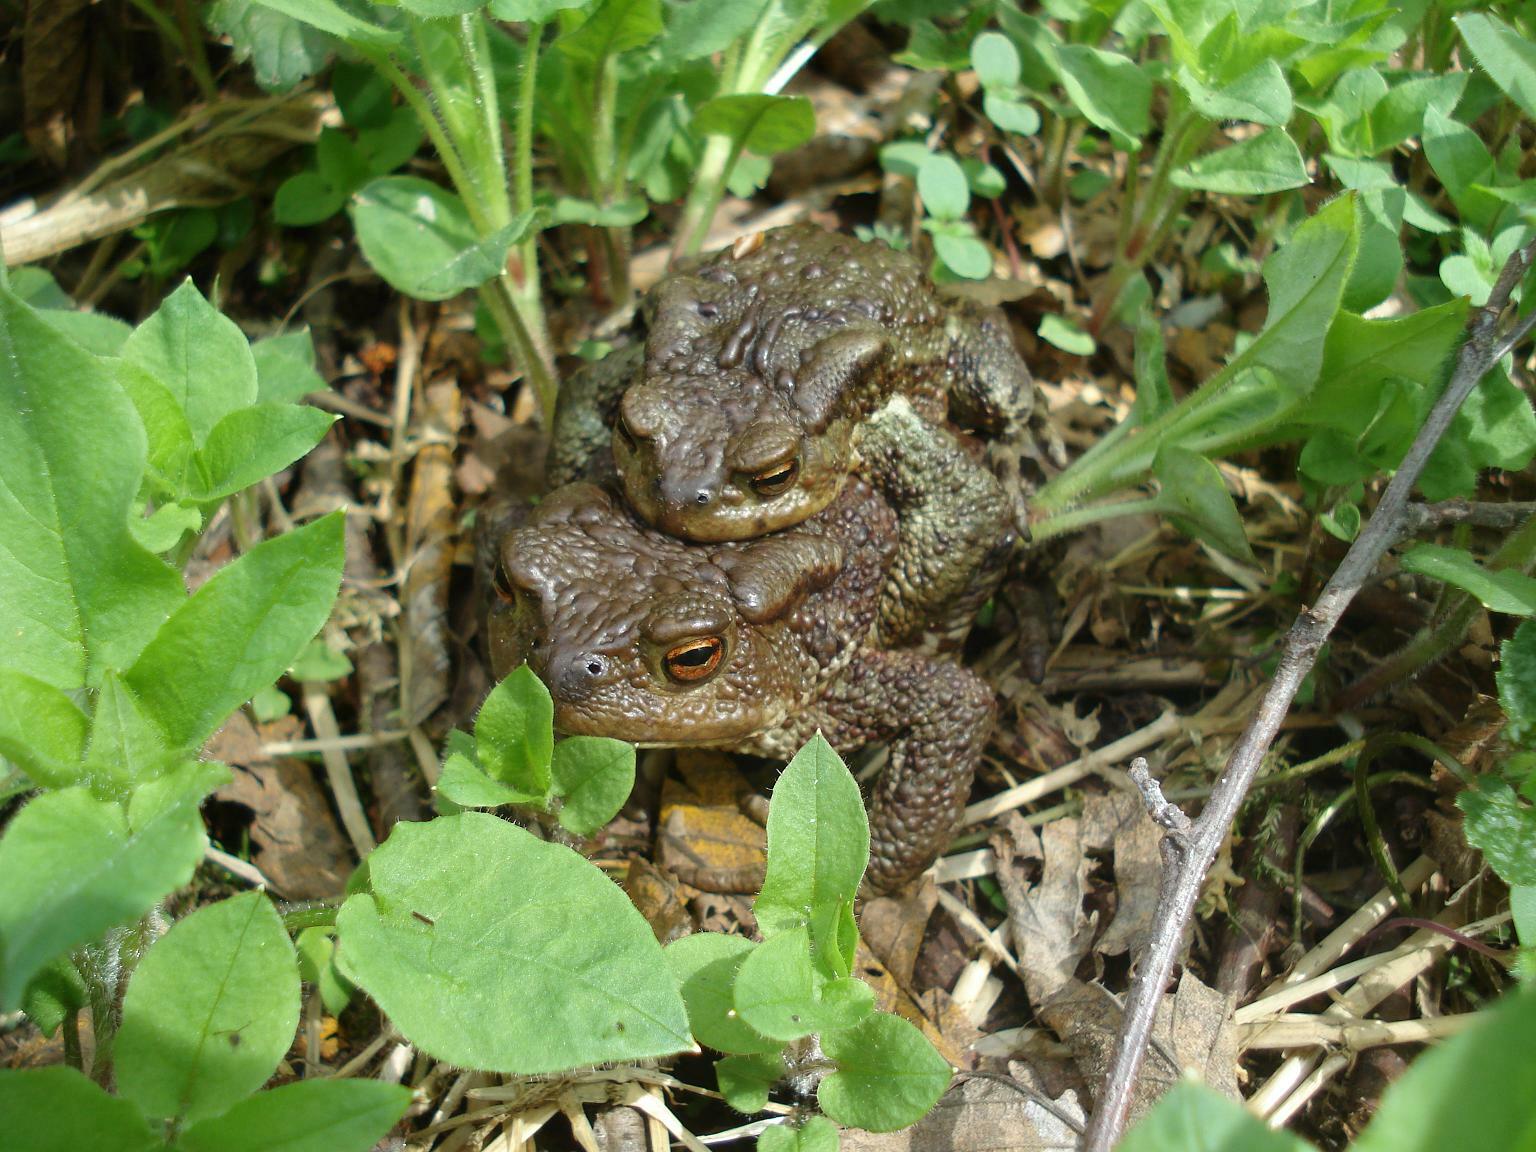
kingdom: Animalia
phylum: Chordata
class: Amphibia
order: Anura
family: Bufonidae
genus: Bufo
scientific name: Bufo bufo
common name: Common toad
